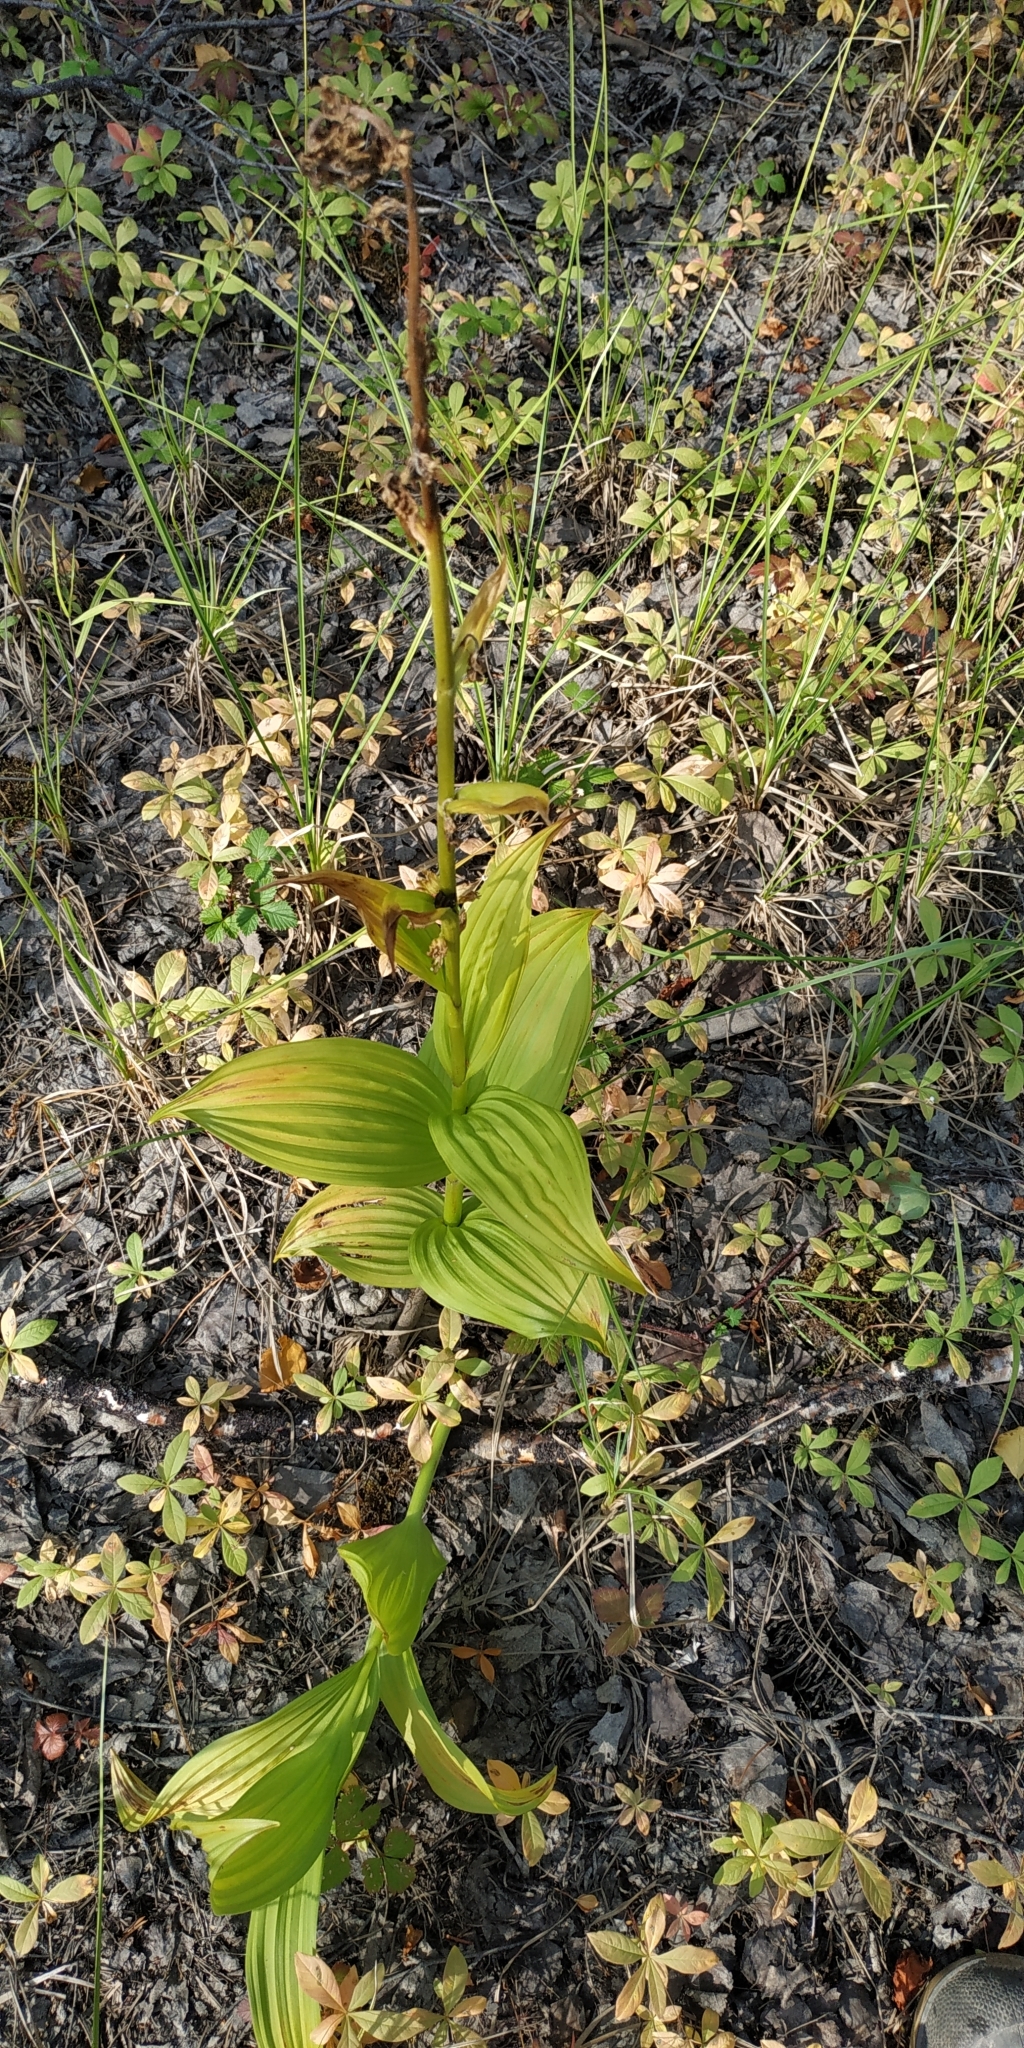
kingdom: Plantae
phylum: Tracheophyta
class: Liliopsida
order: Liliales
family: Melanthiaceae
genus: Veratrum
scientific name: Veratrum lobelianum
